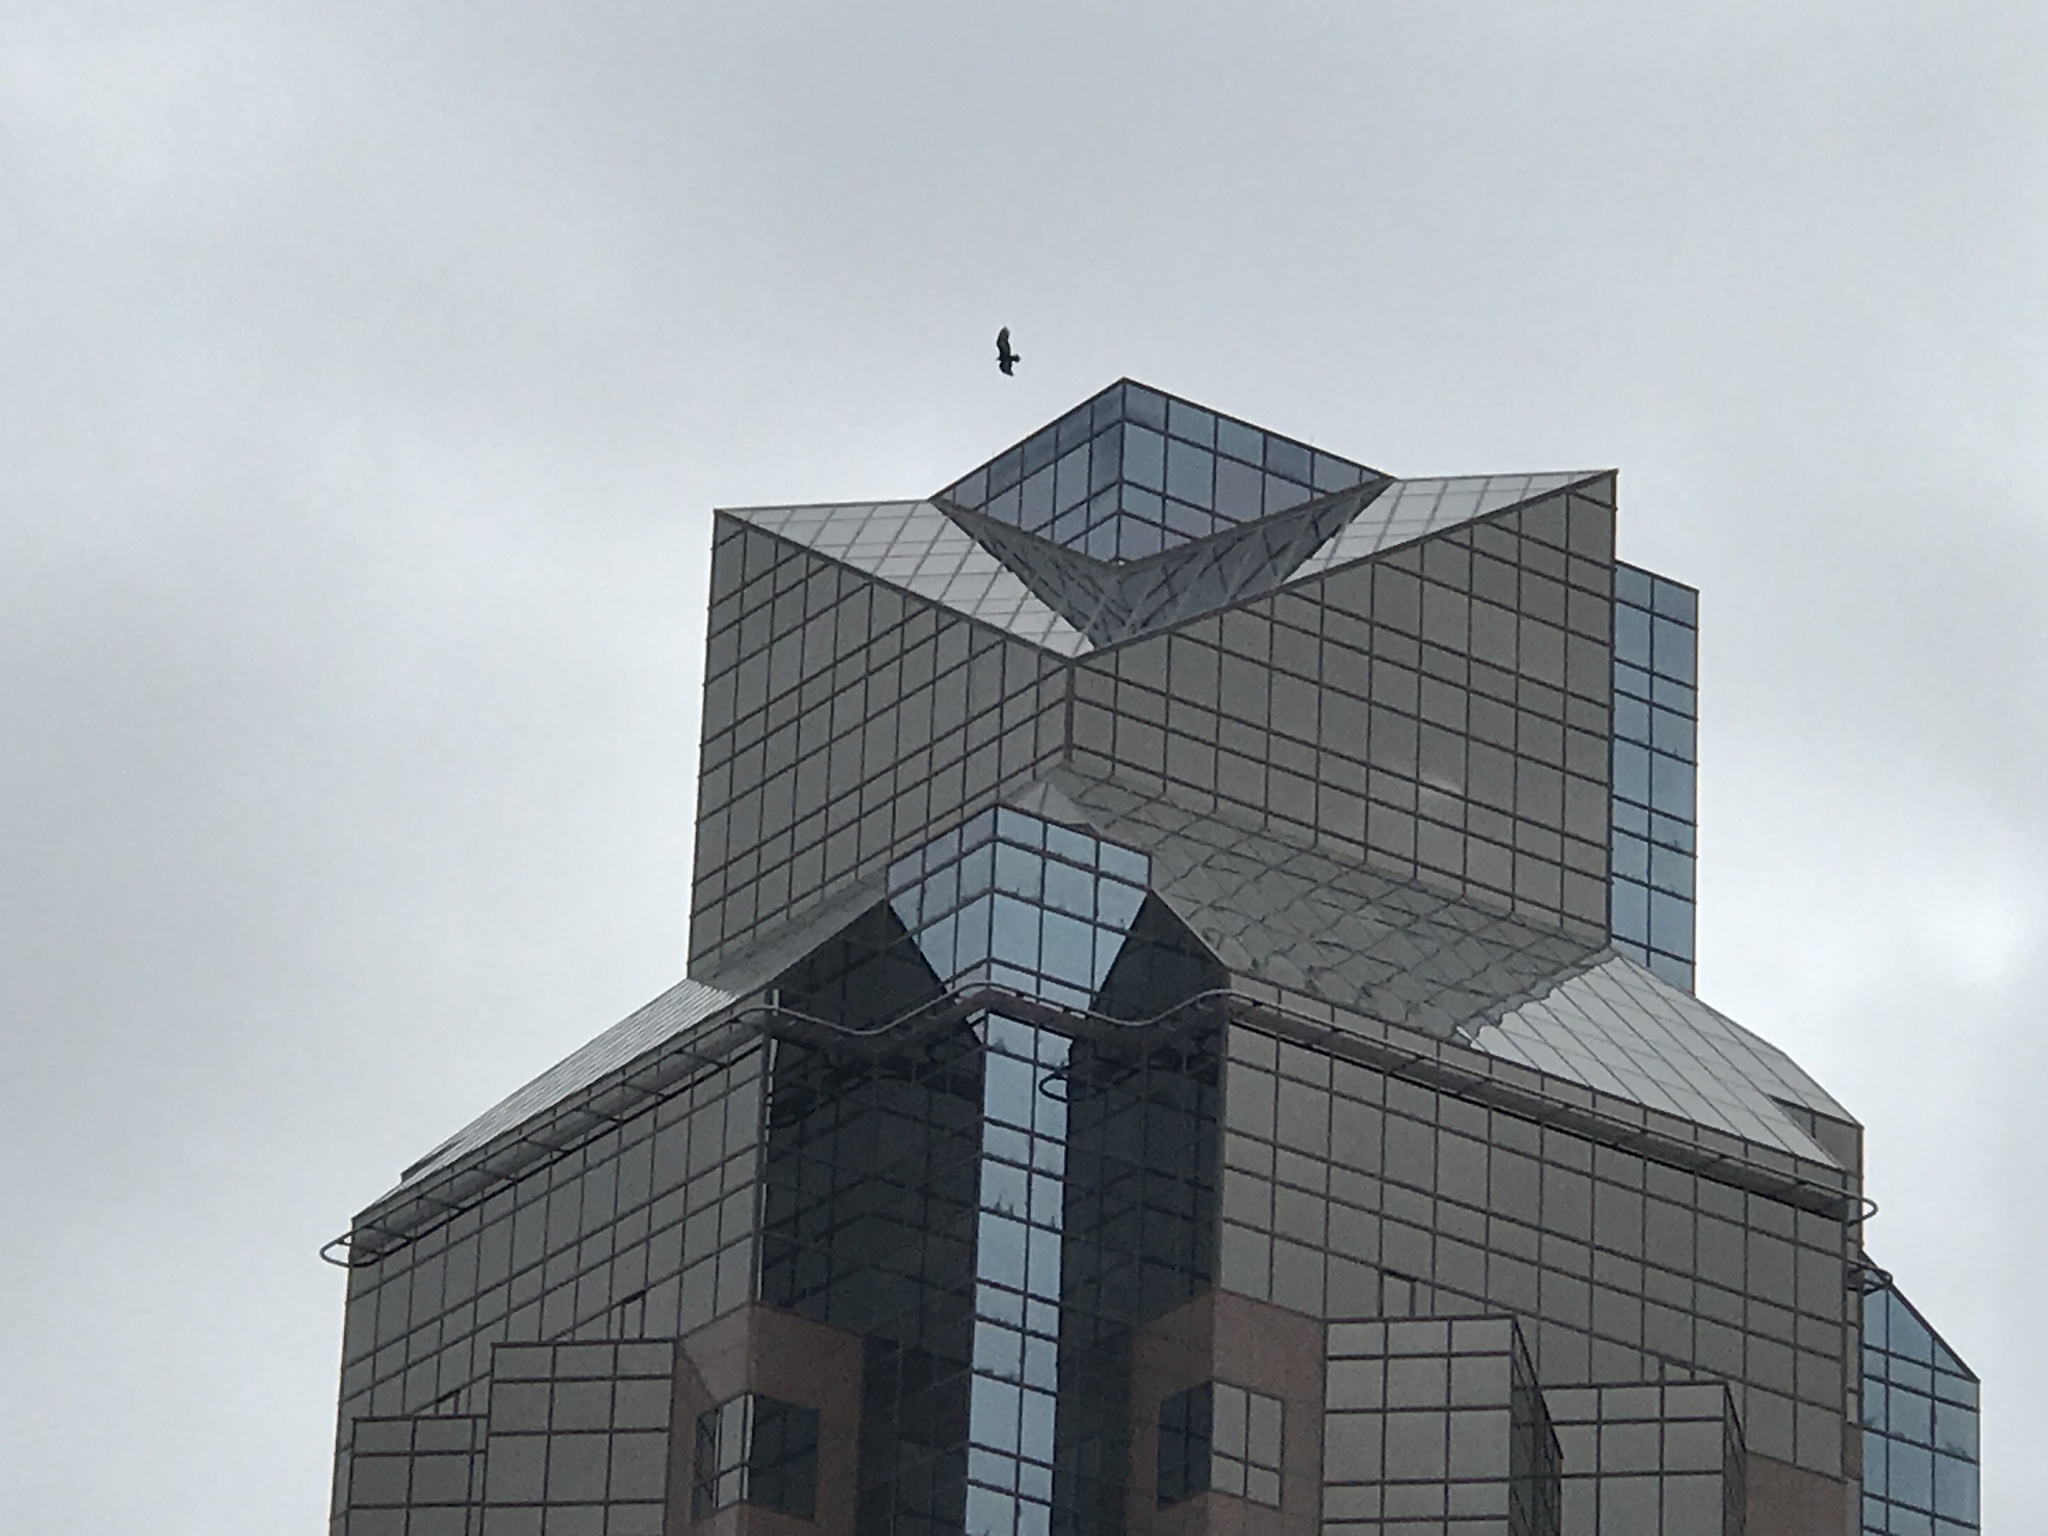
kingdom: Animalia
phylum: Chordata
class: Aves
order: Accipitriformes
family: Cathartidae
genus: Cathartes
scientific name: Cathartes aura
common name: Turkey vulture
